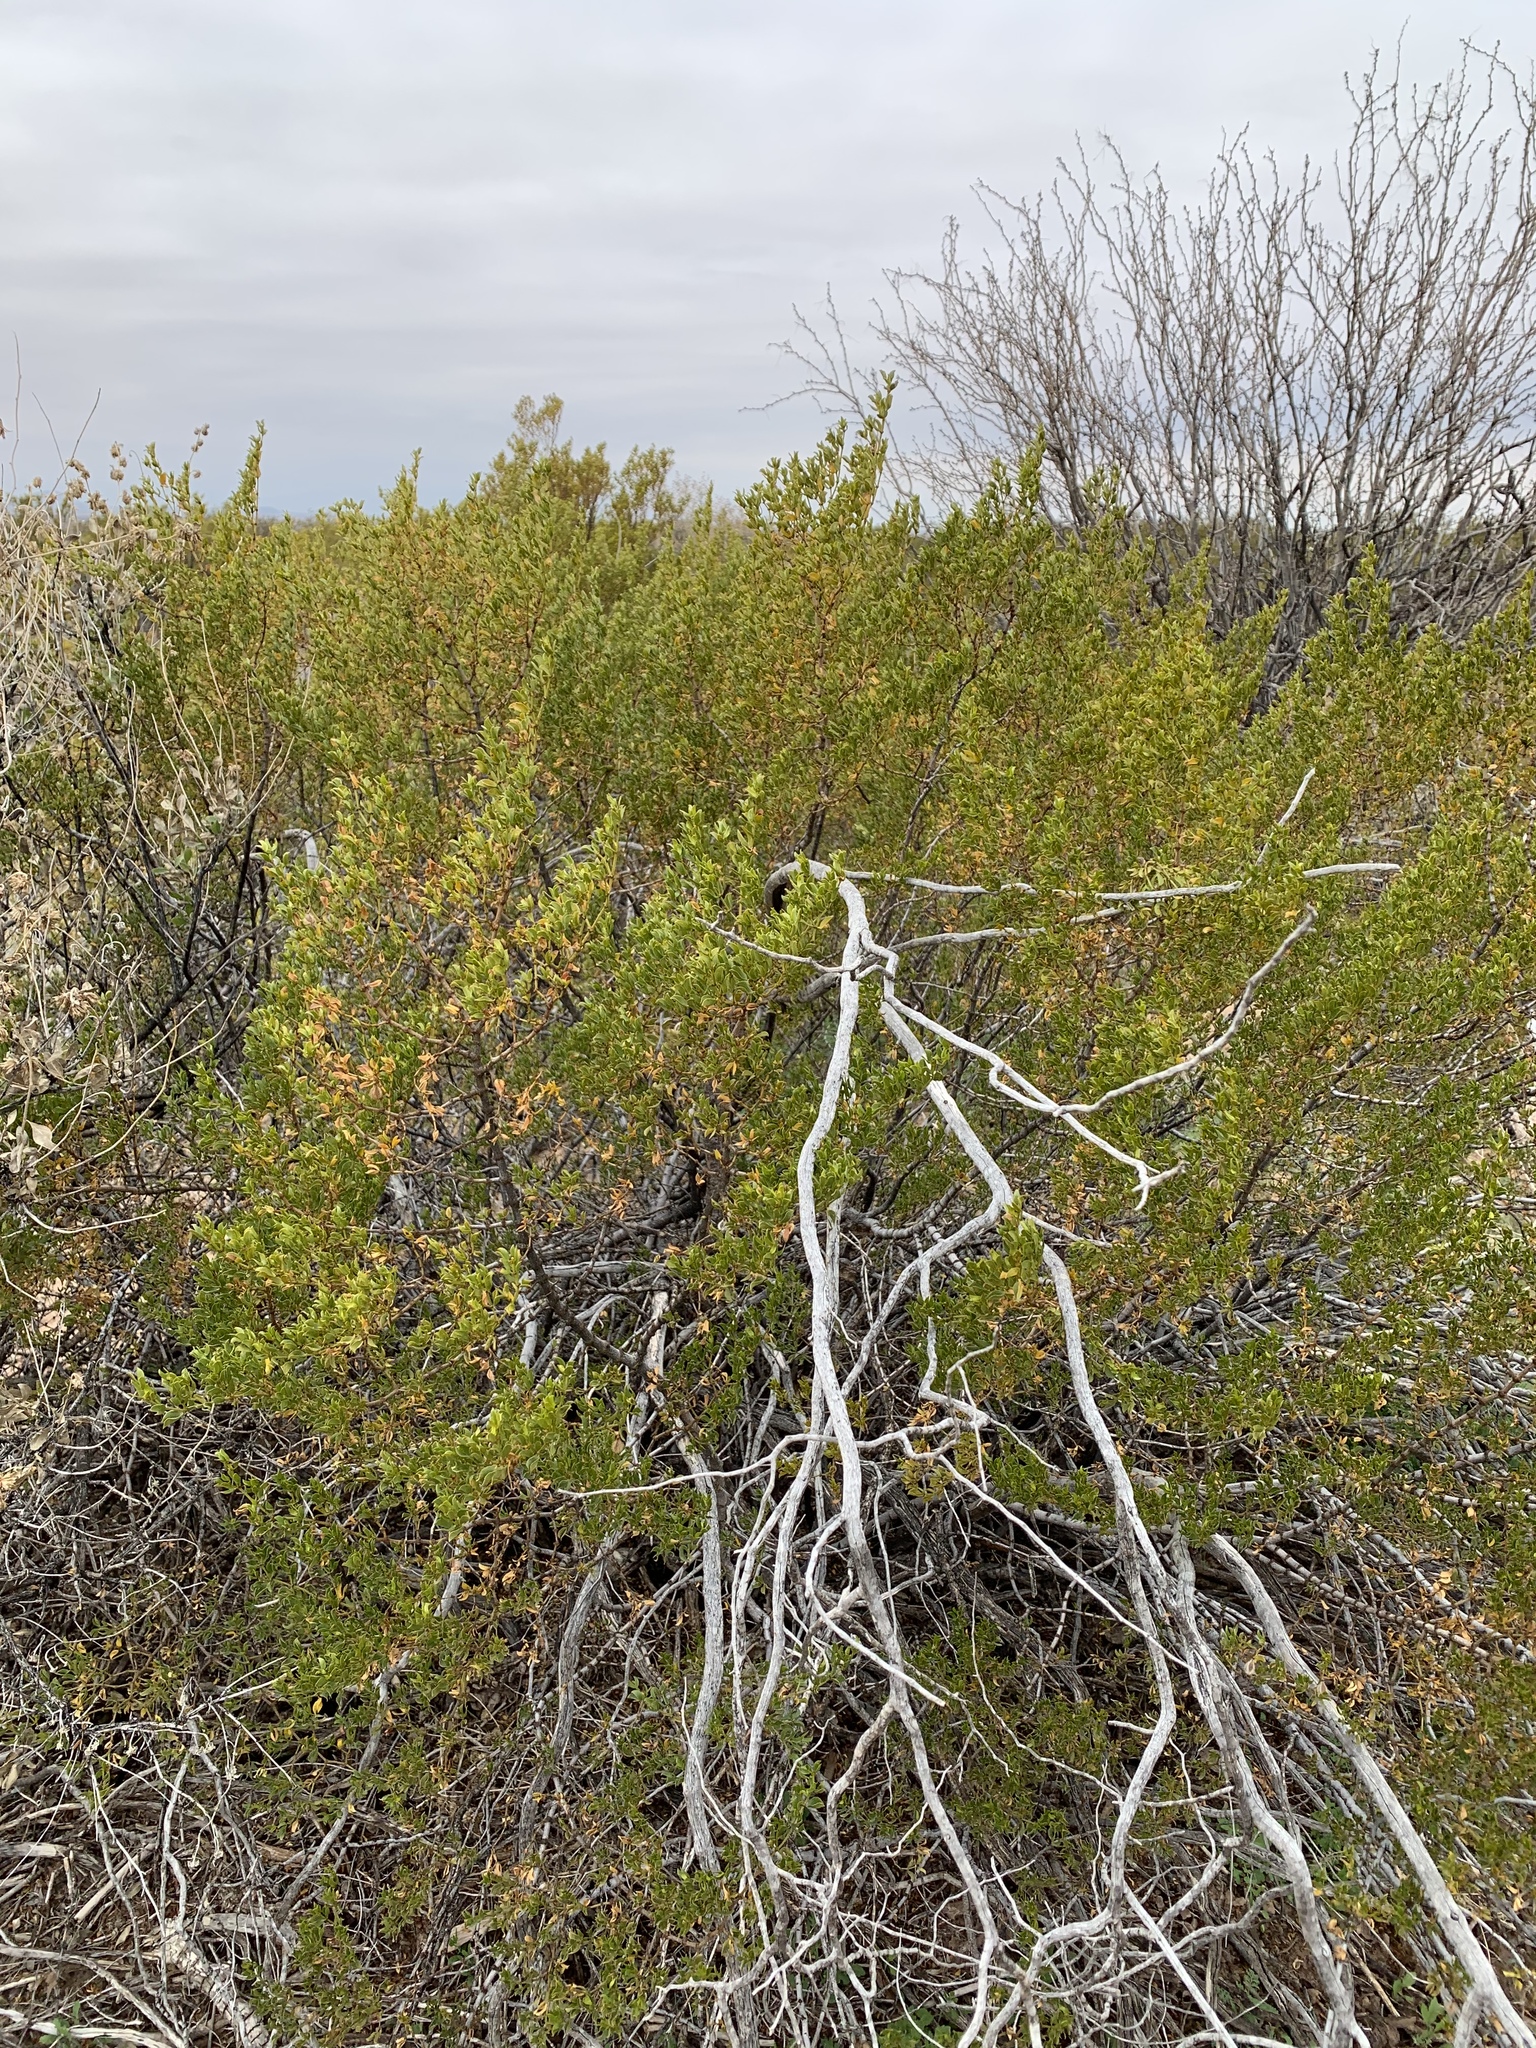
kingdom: Plantae
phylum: Tracheophyta
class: Magnoliopsida
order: Zygophyllales
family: Zygophyllaceae
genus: Larrea
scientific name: Larrea tridentata
